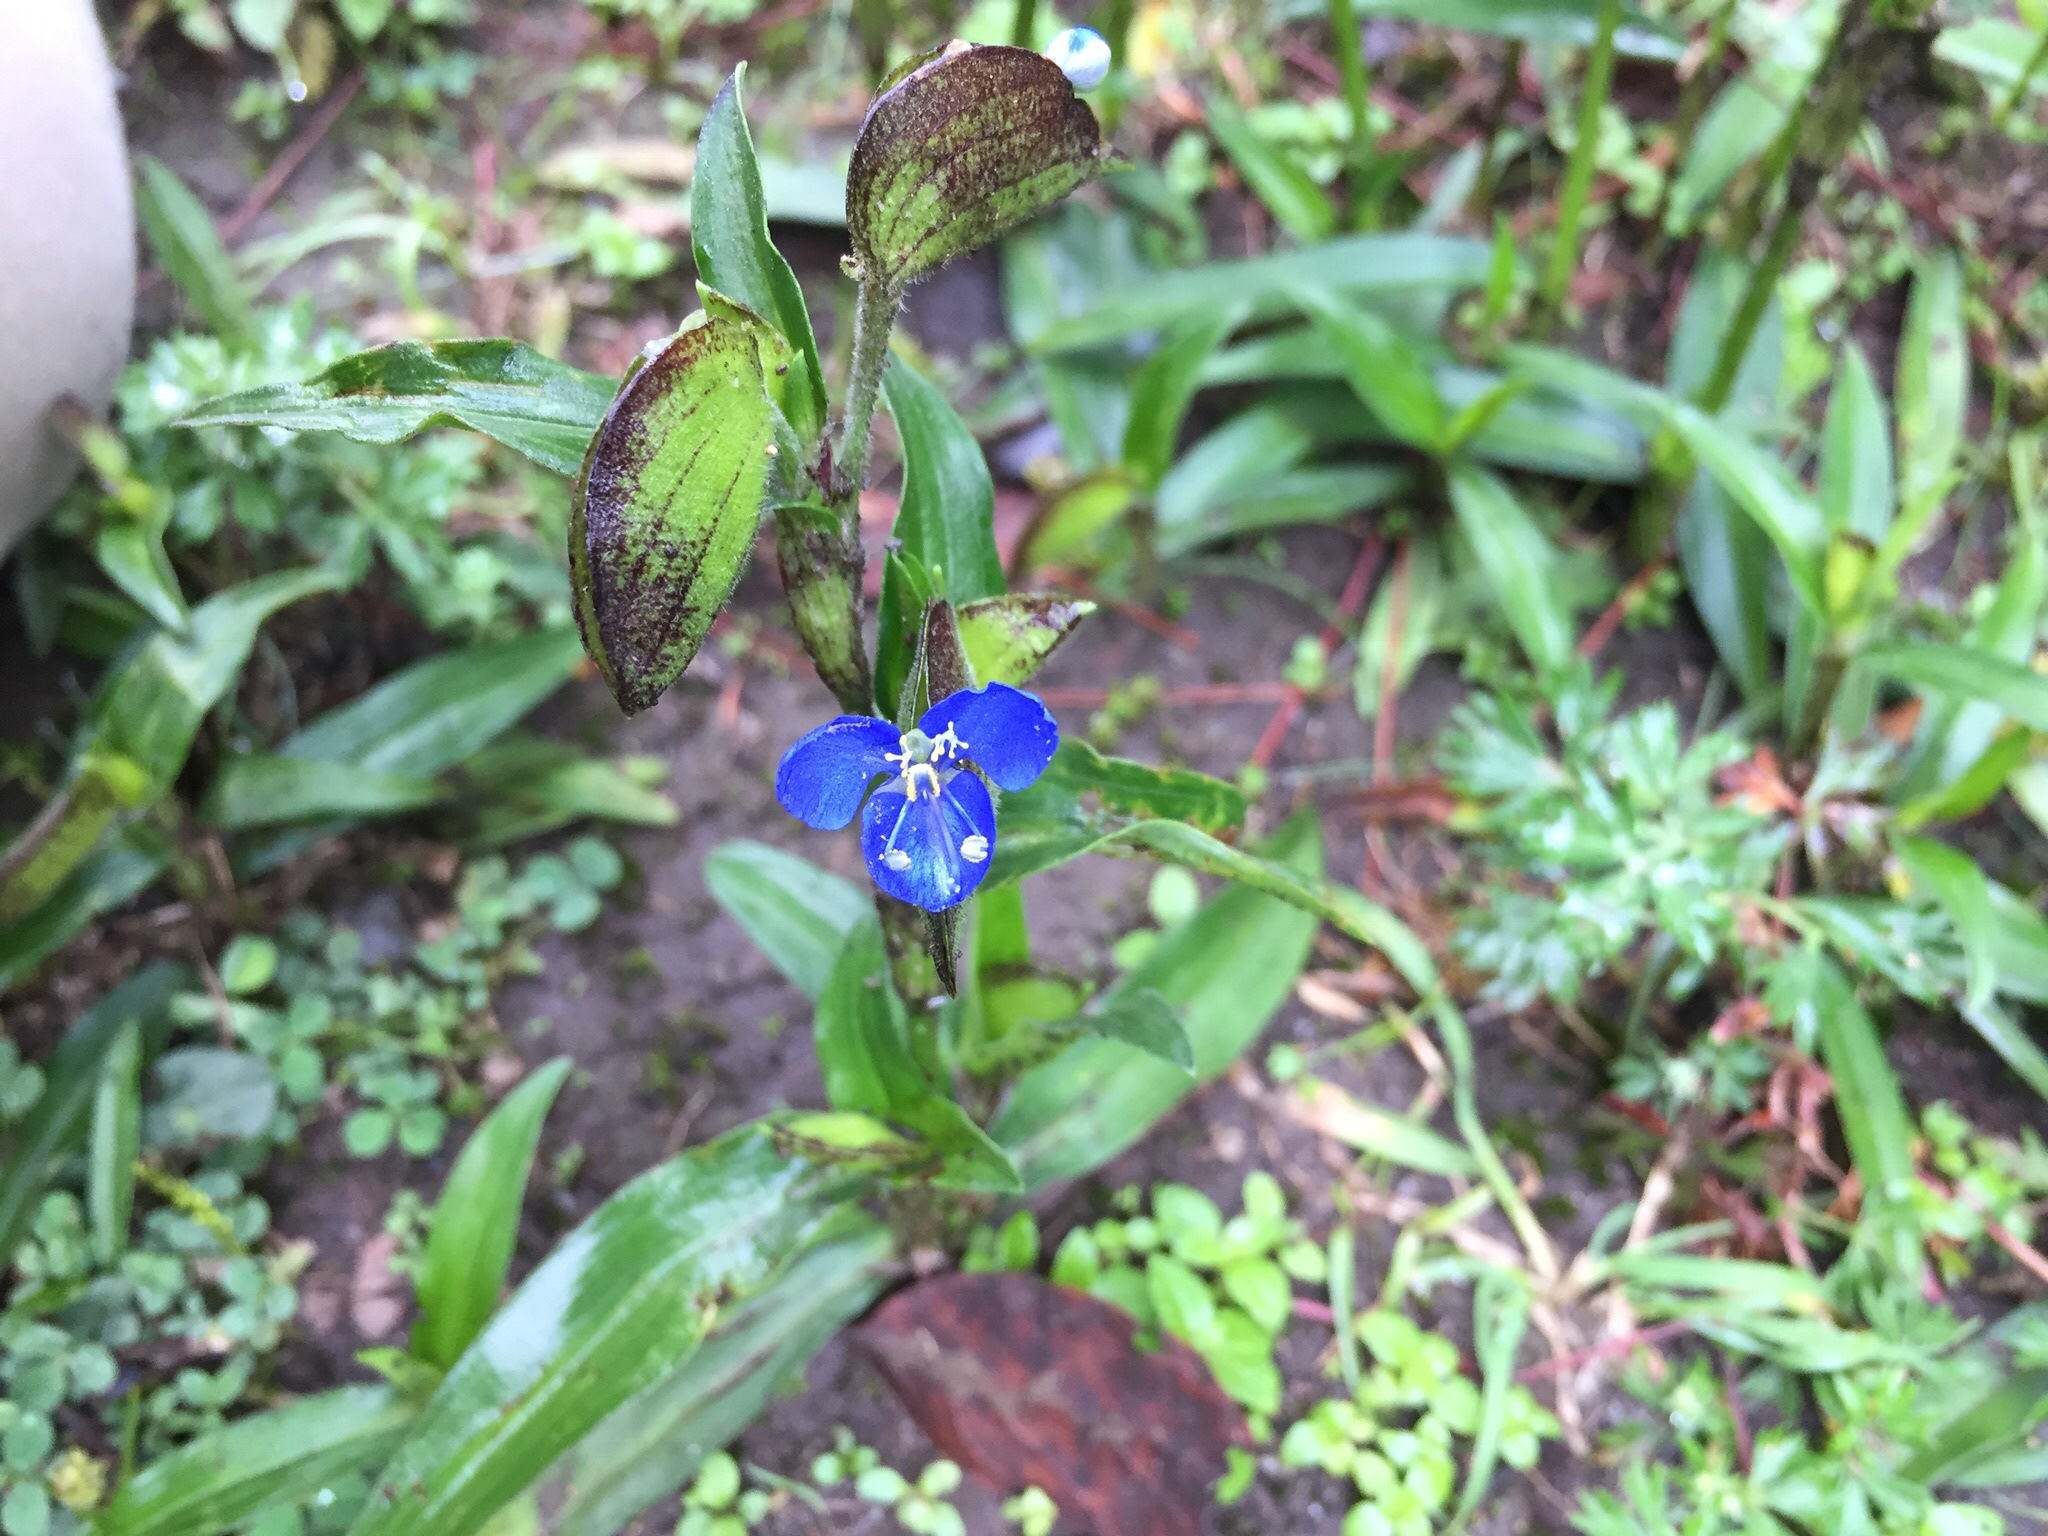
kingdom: Plantae
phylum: Tracheophyta
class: Liliopsida
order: Commelinales
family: Commelinaceae
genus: Commelina
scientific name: Commelina tuberosa
